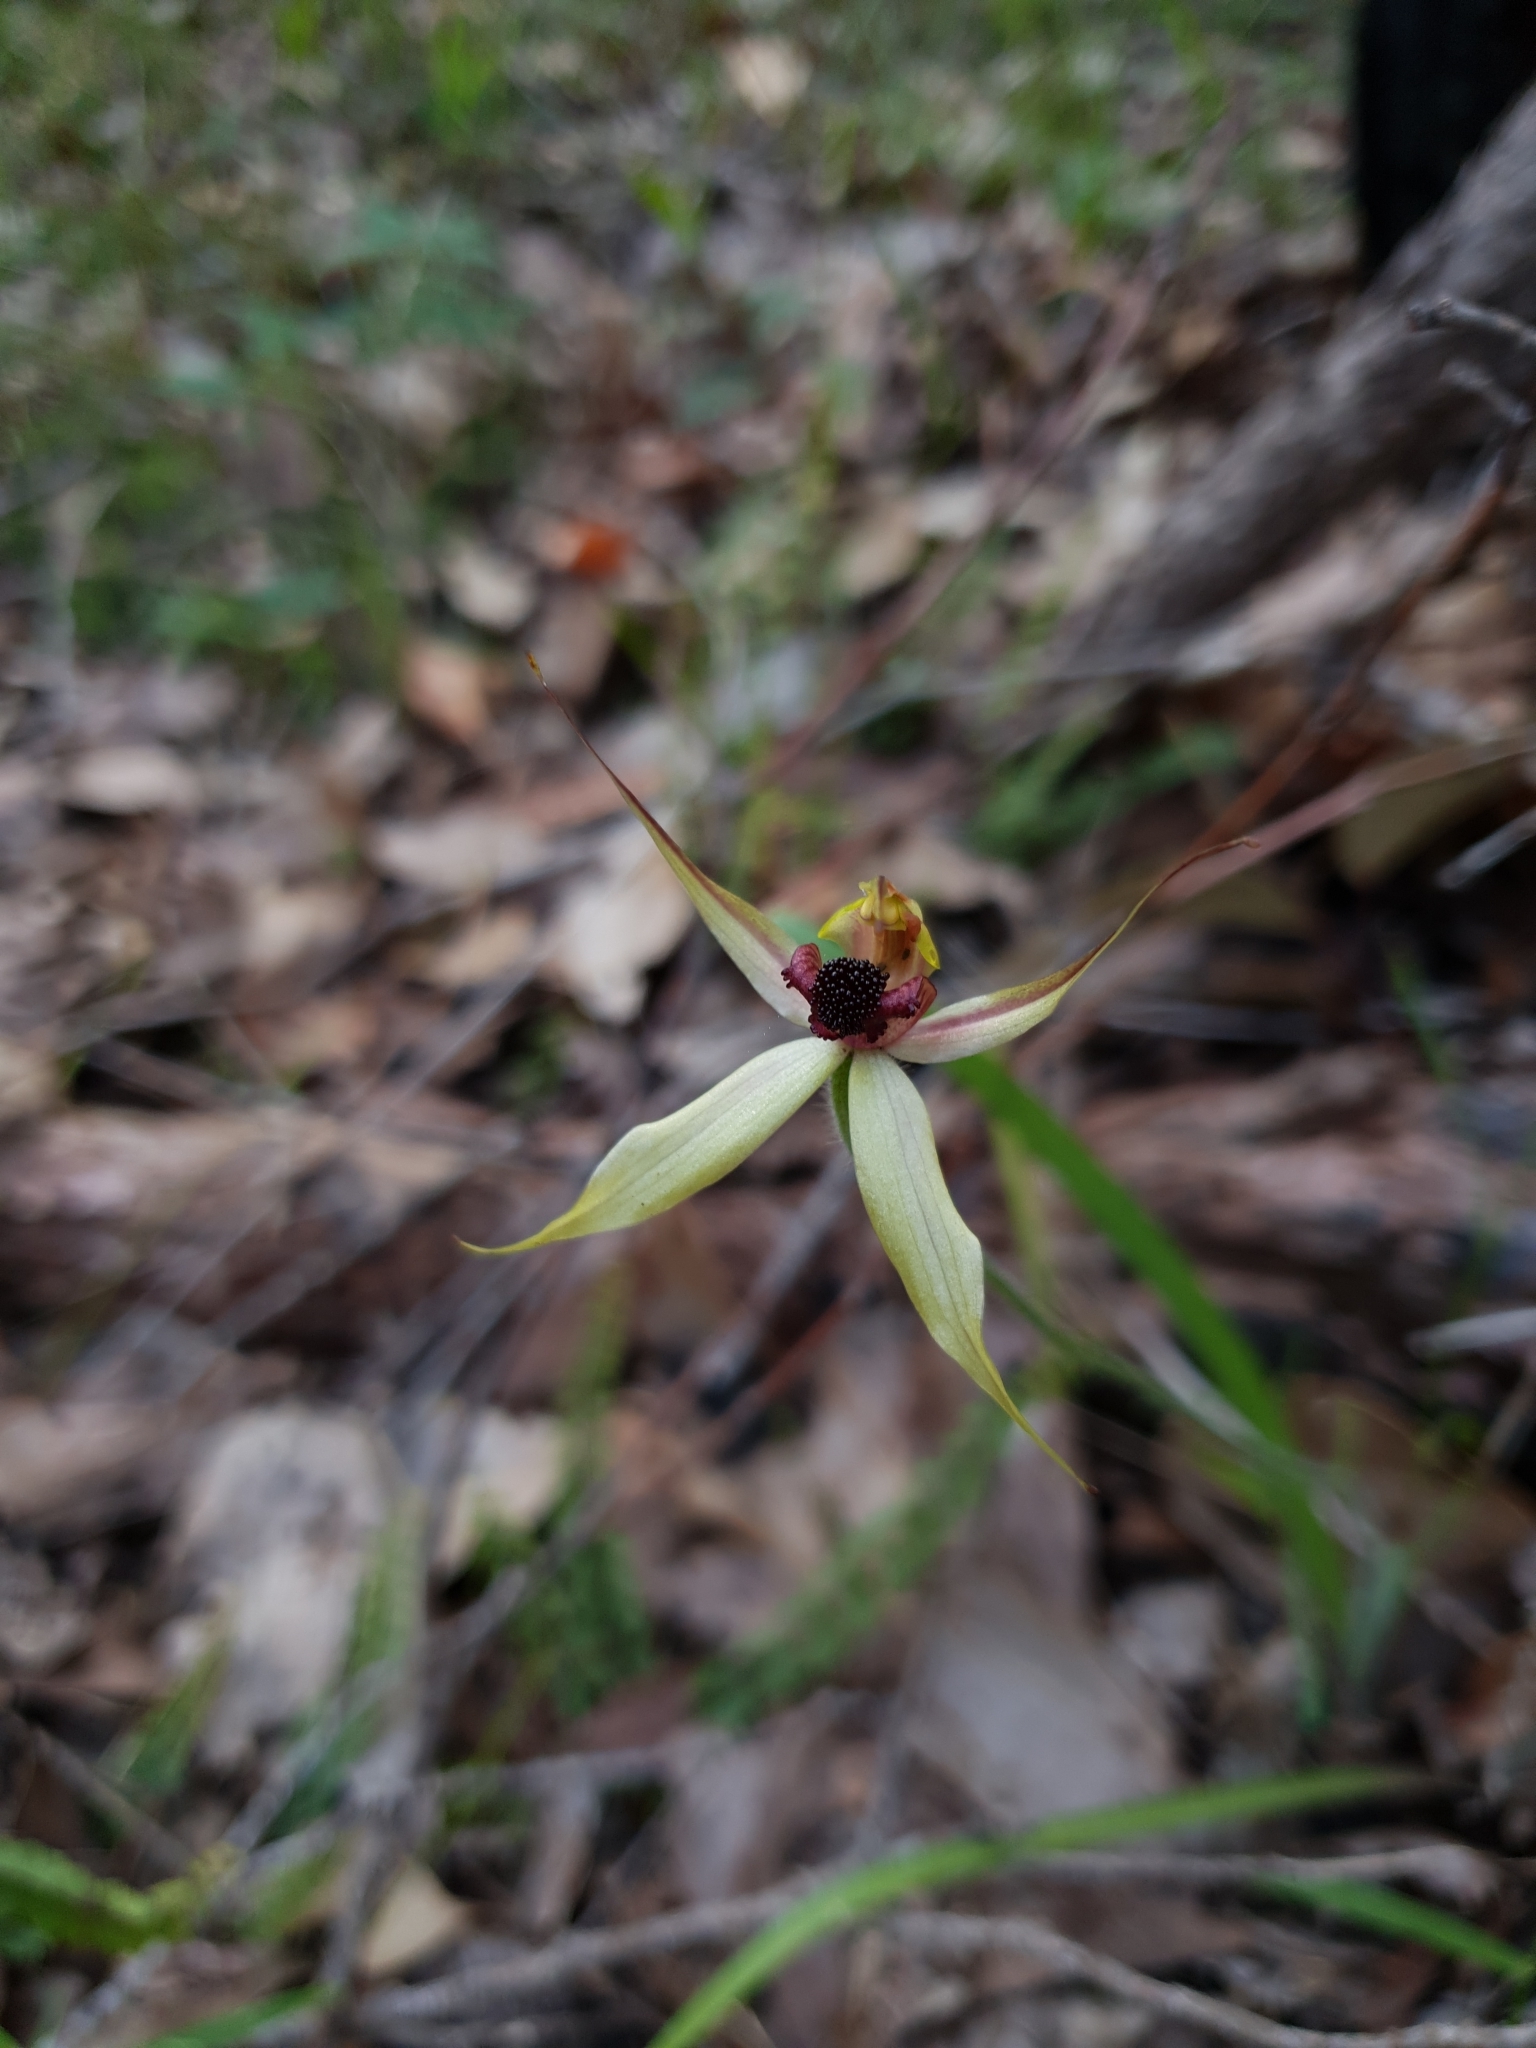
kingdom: Plantae
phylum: Tracheophyta
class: Liliopsida
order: Asparagales
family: Orchidaceae
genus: Caladenia
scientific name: Caladenia macrostylis
